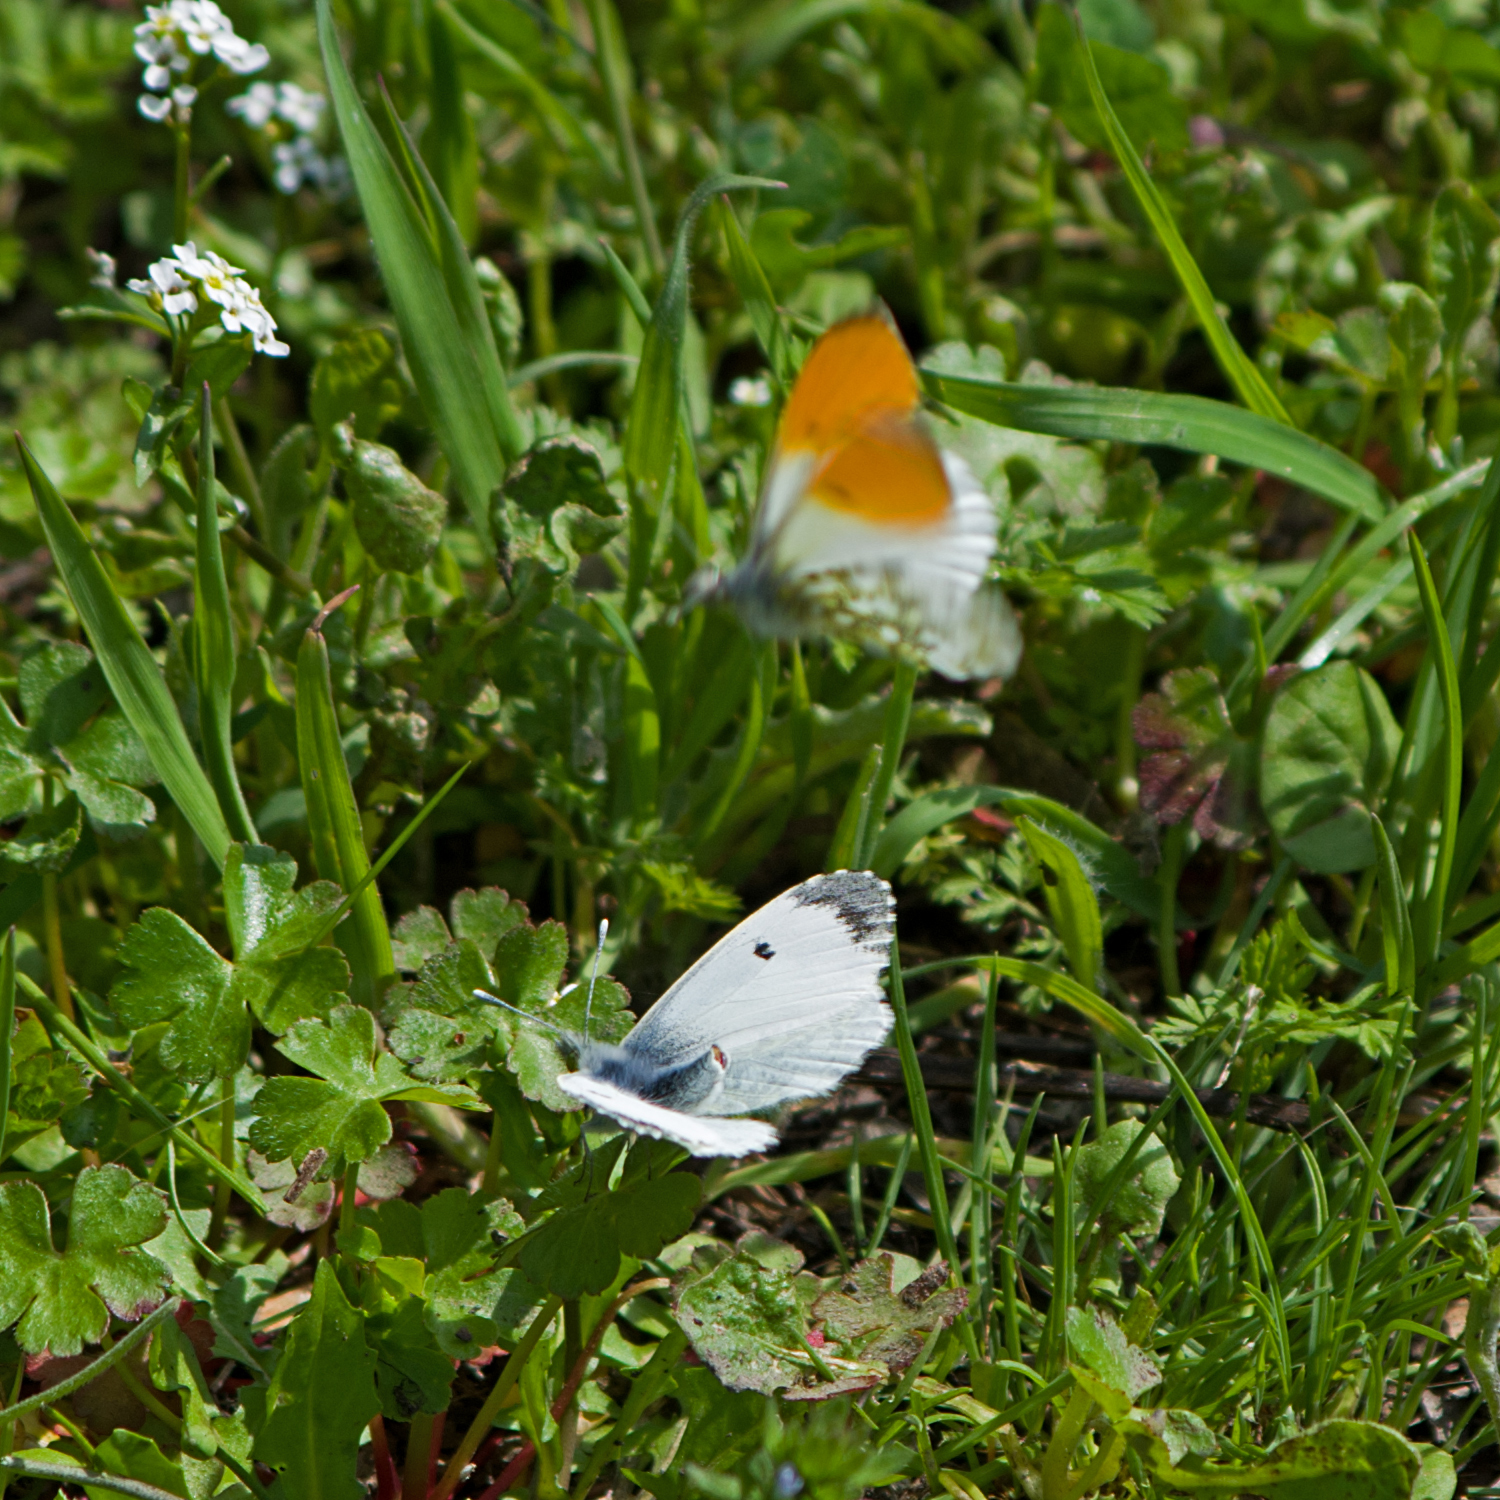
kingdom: Animalia
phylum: Arthropoda
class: Insecta
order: Lepidoptera
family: Pieridae
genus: Anthocharis
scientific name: Anthocharis cardamines
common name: Orange-tip
